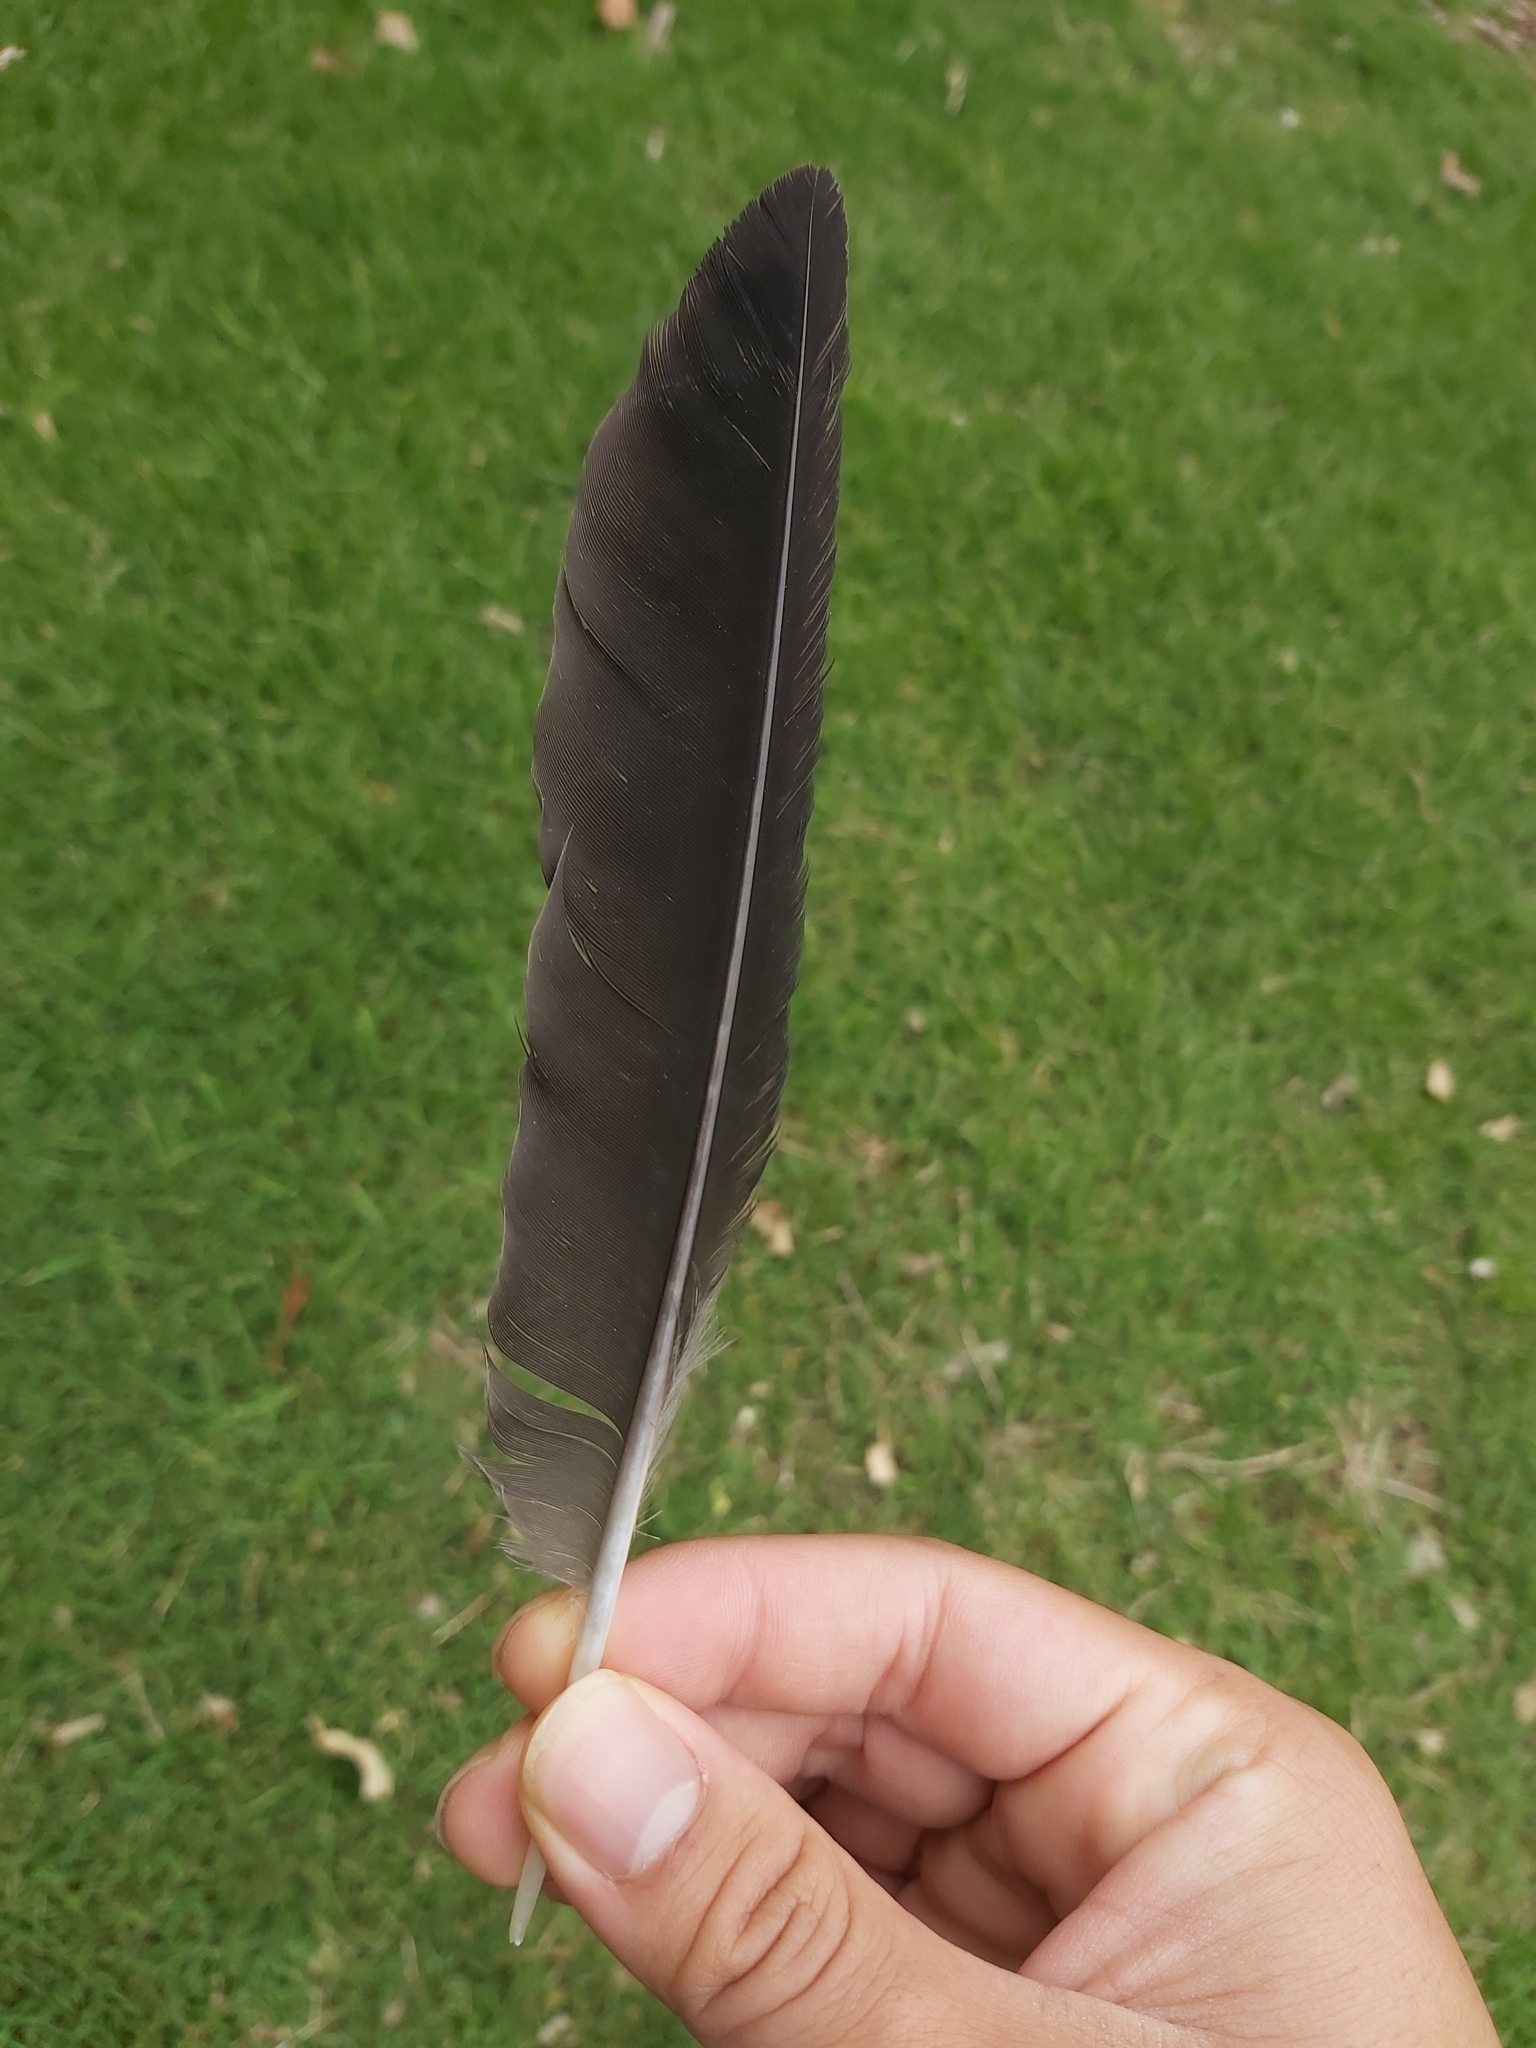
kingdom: Animalia
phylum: Chordata
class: Aves
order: Passeriformes
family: Cracticidae
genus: Gymnorhina
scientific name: Gymnorhina tibicen
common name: Australian magpie
